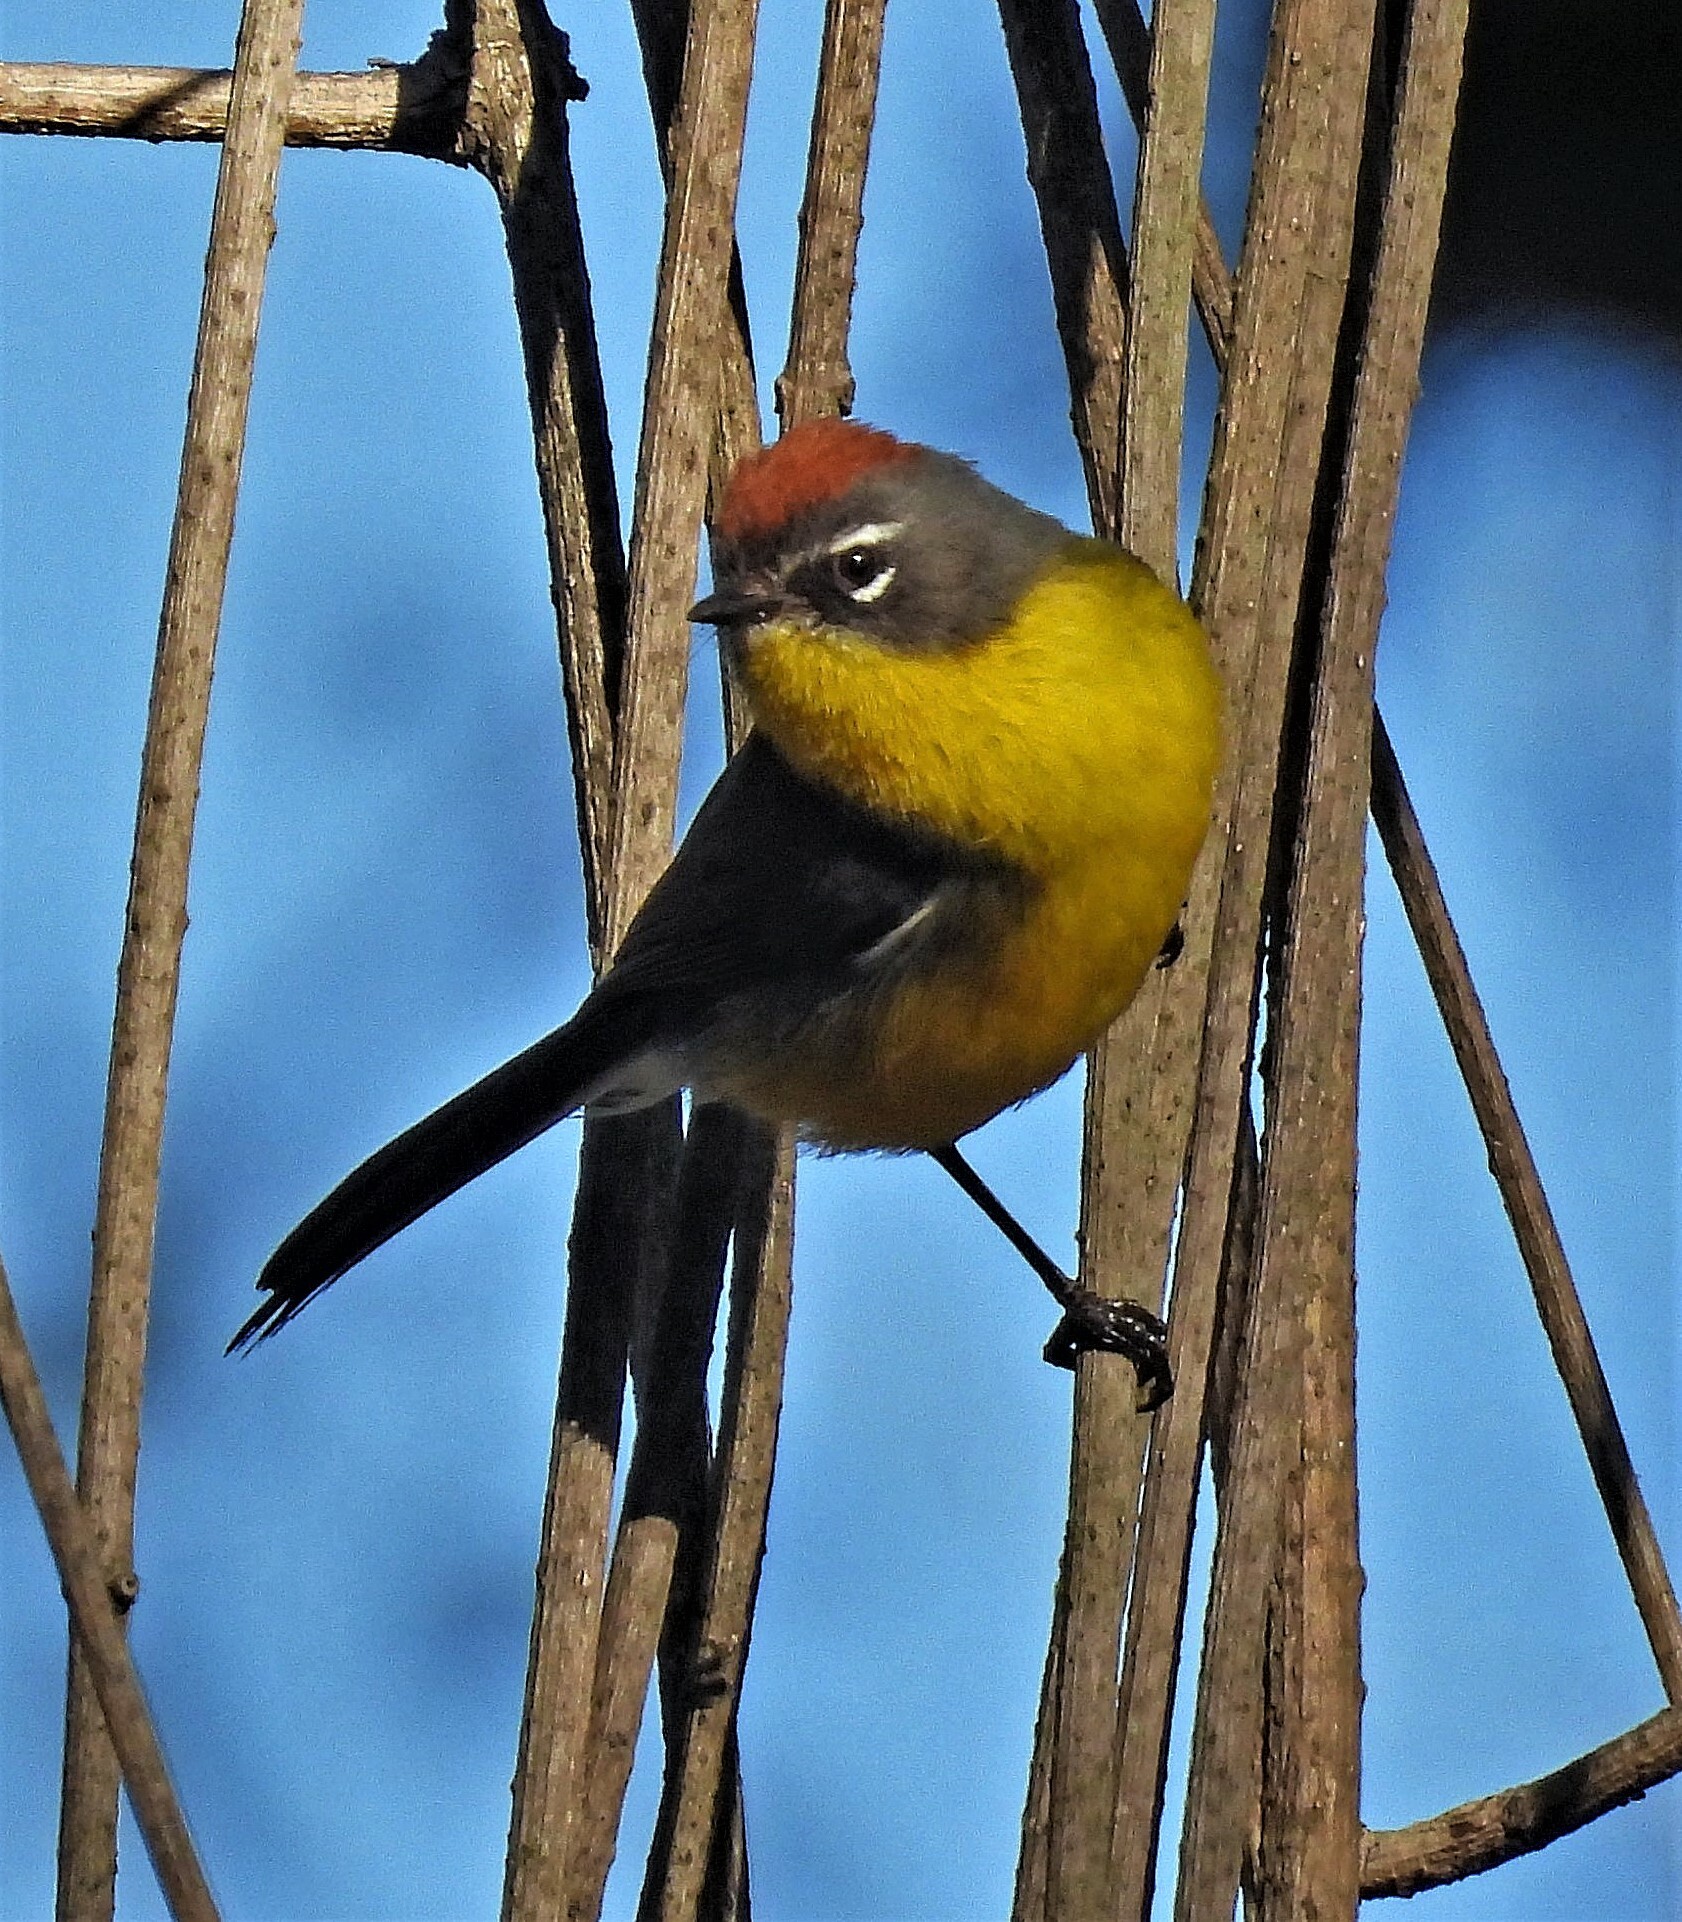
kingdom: Animalia
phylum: Chordata
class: Aves
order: Passeriformes
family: Parulidae
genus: Myioborus
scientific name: Myioborus brunniceps
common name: Brown-capped whitestart
